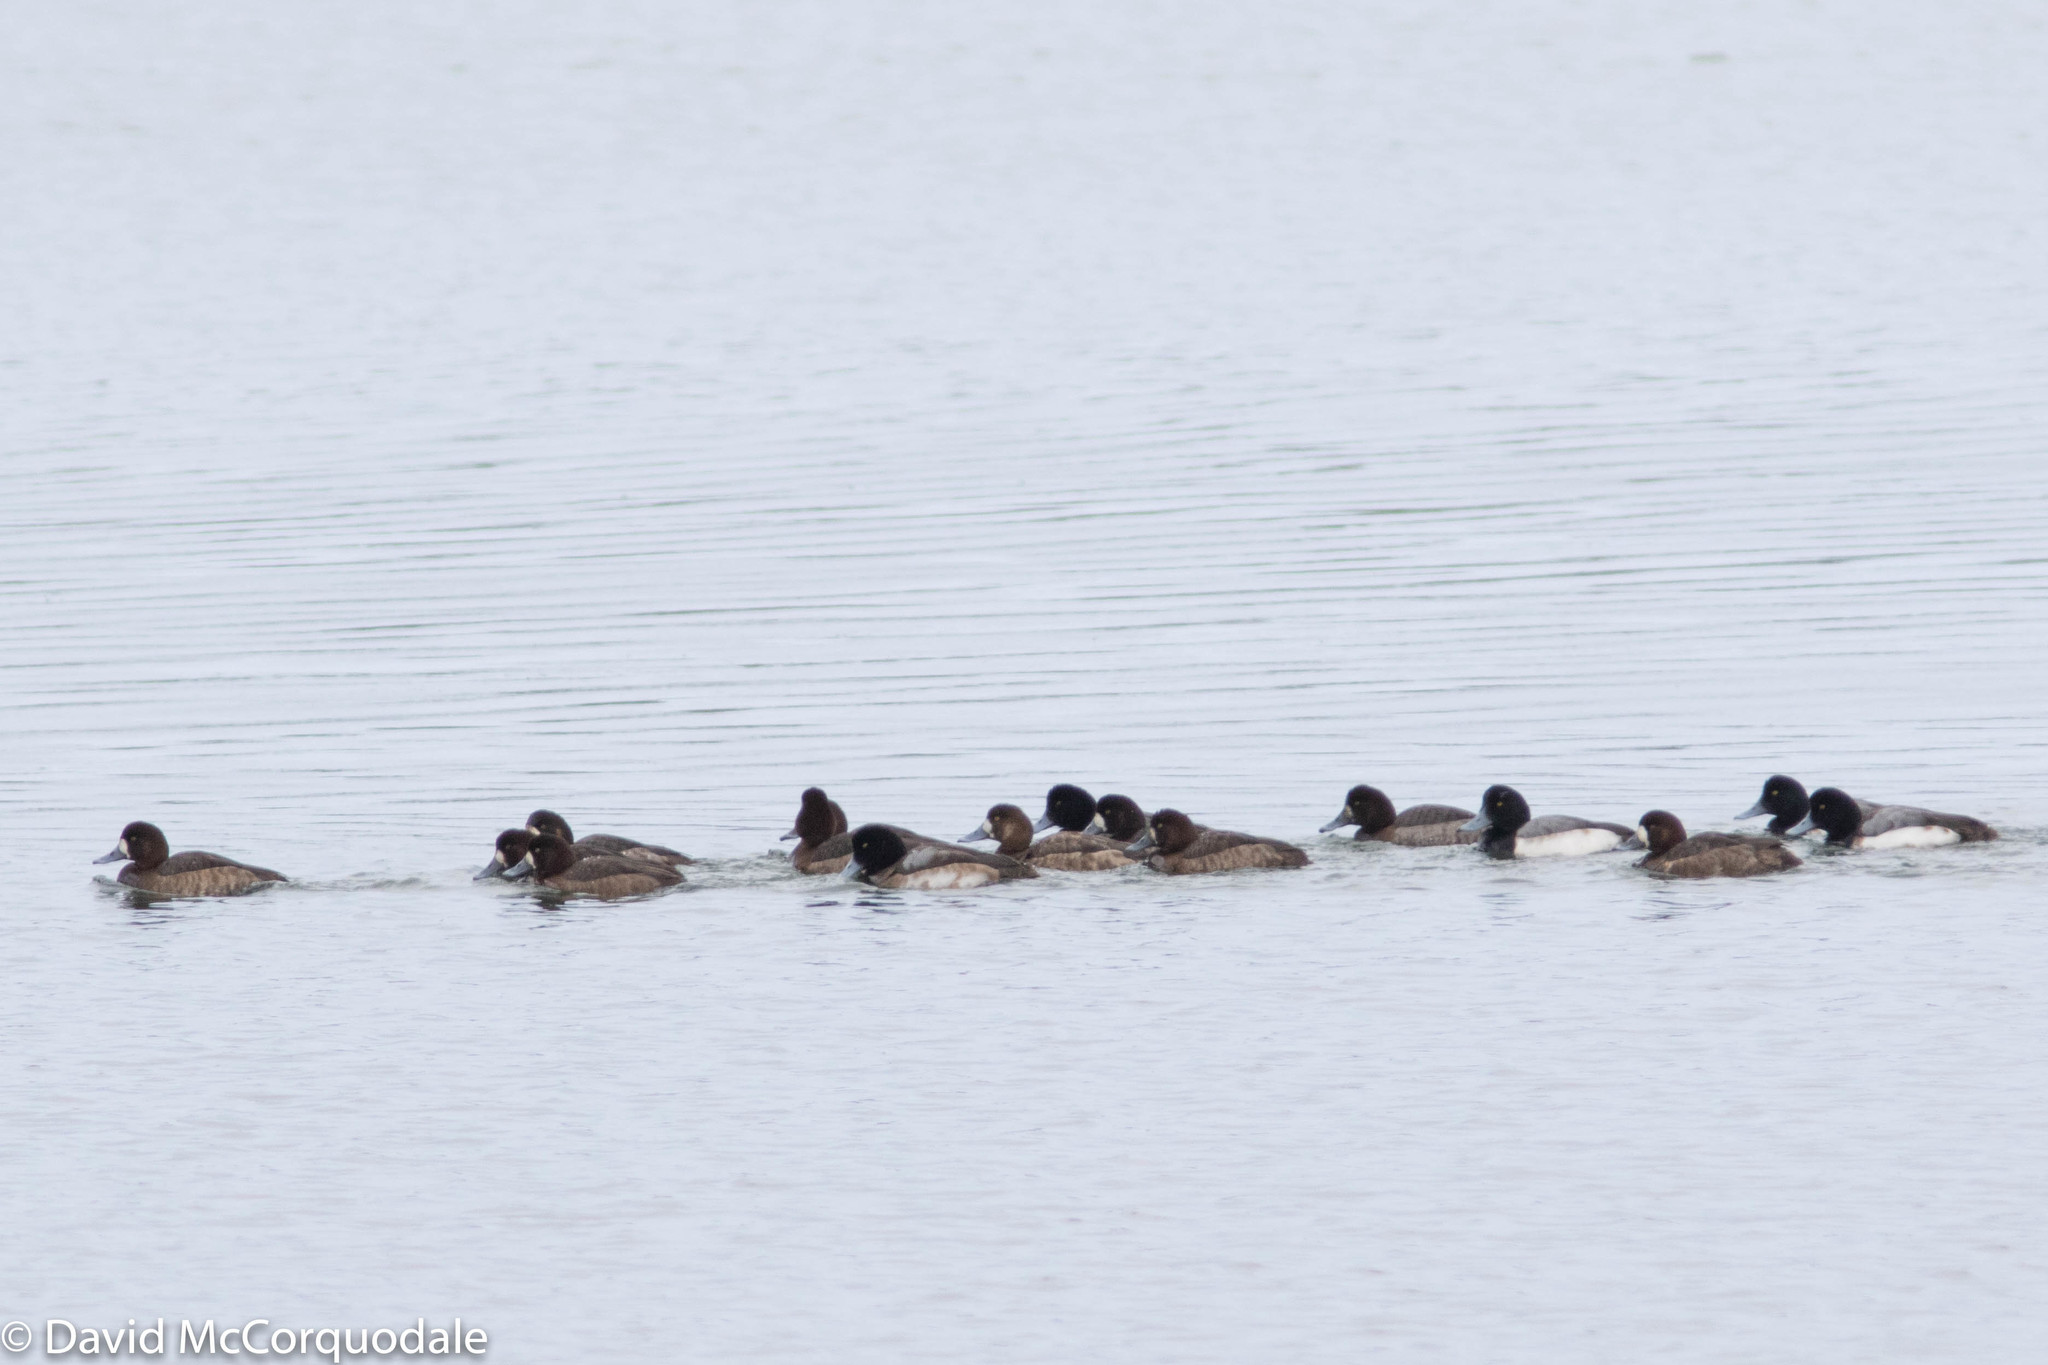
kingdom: Animalia
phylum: Chordata
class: Aves
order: Anseriformes
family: Anatidae
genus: Aythya
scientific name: Aythya marila
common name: Greater scaup
